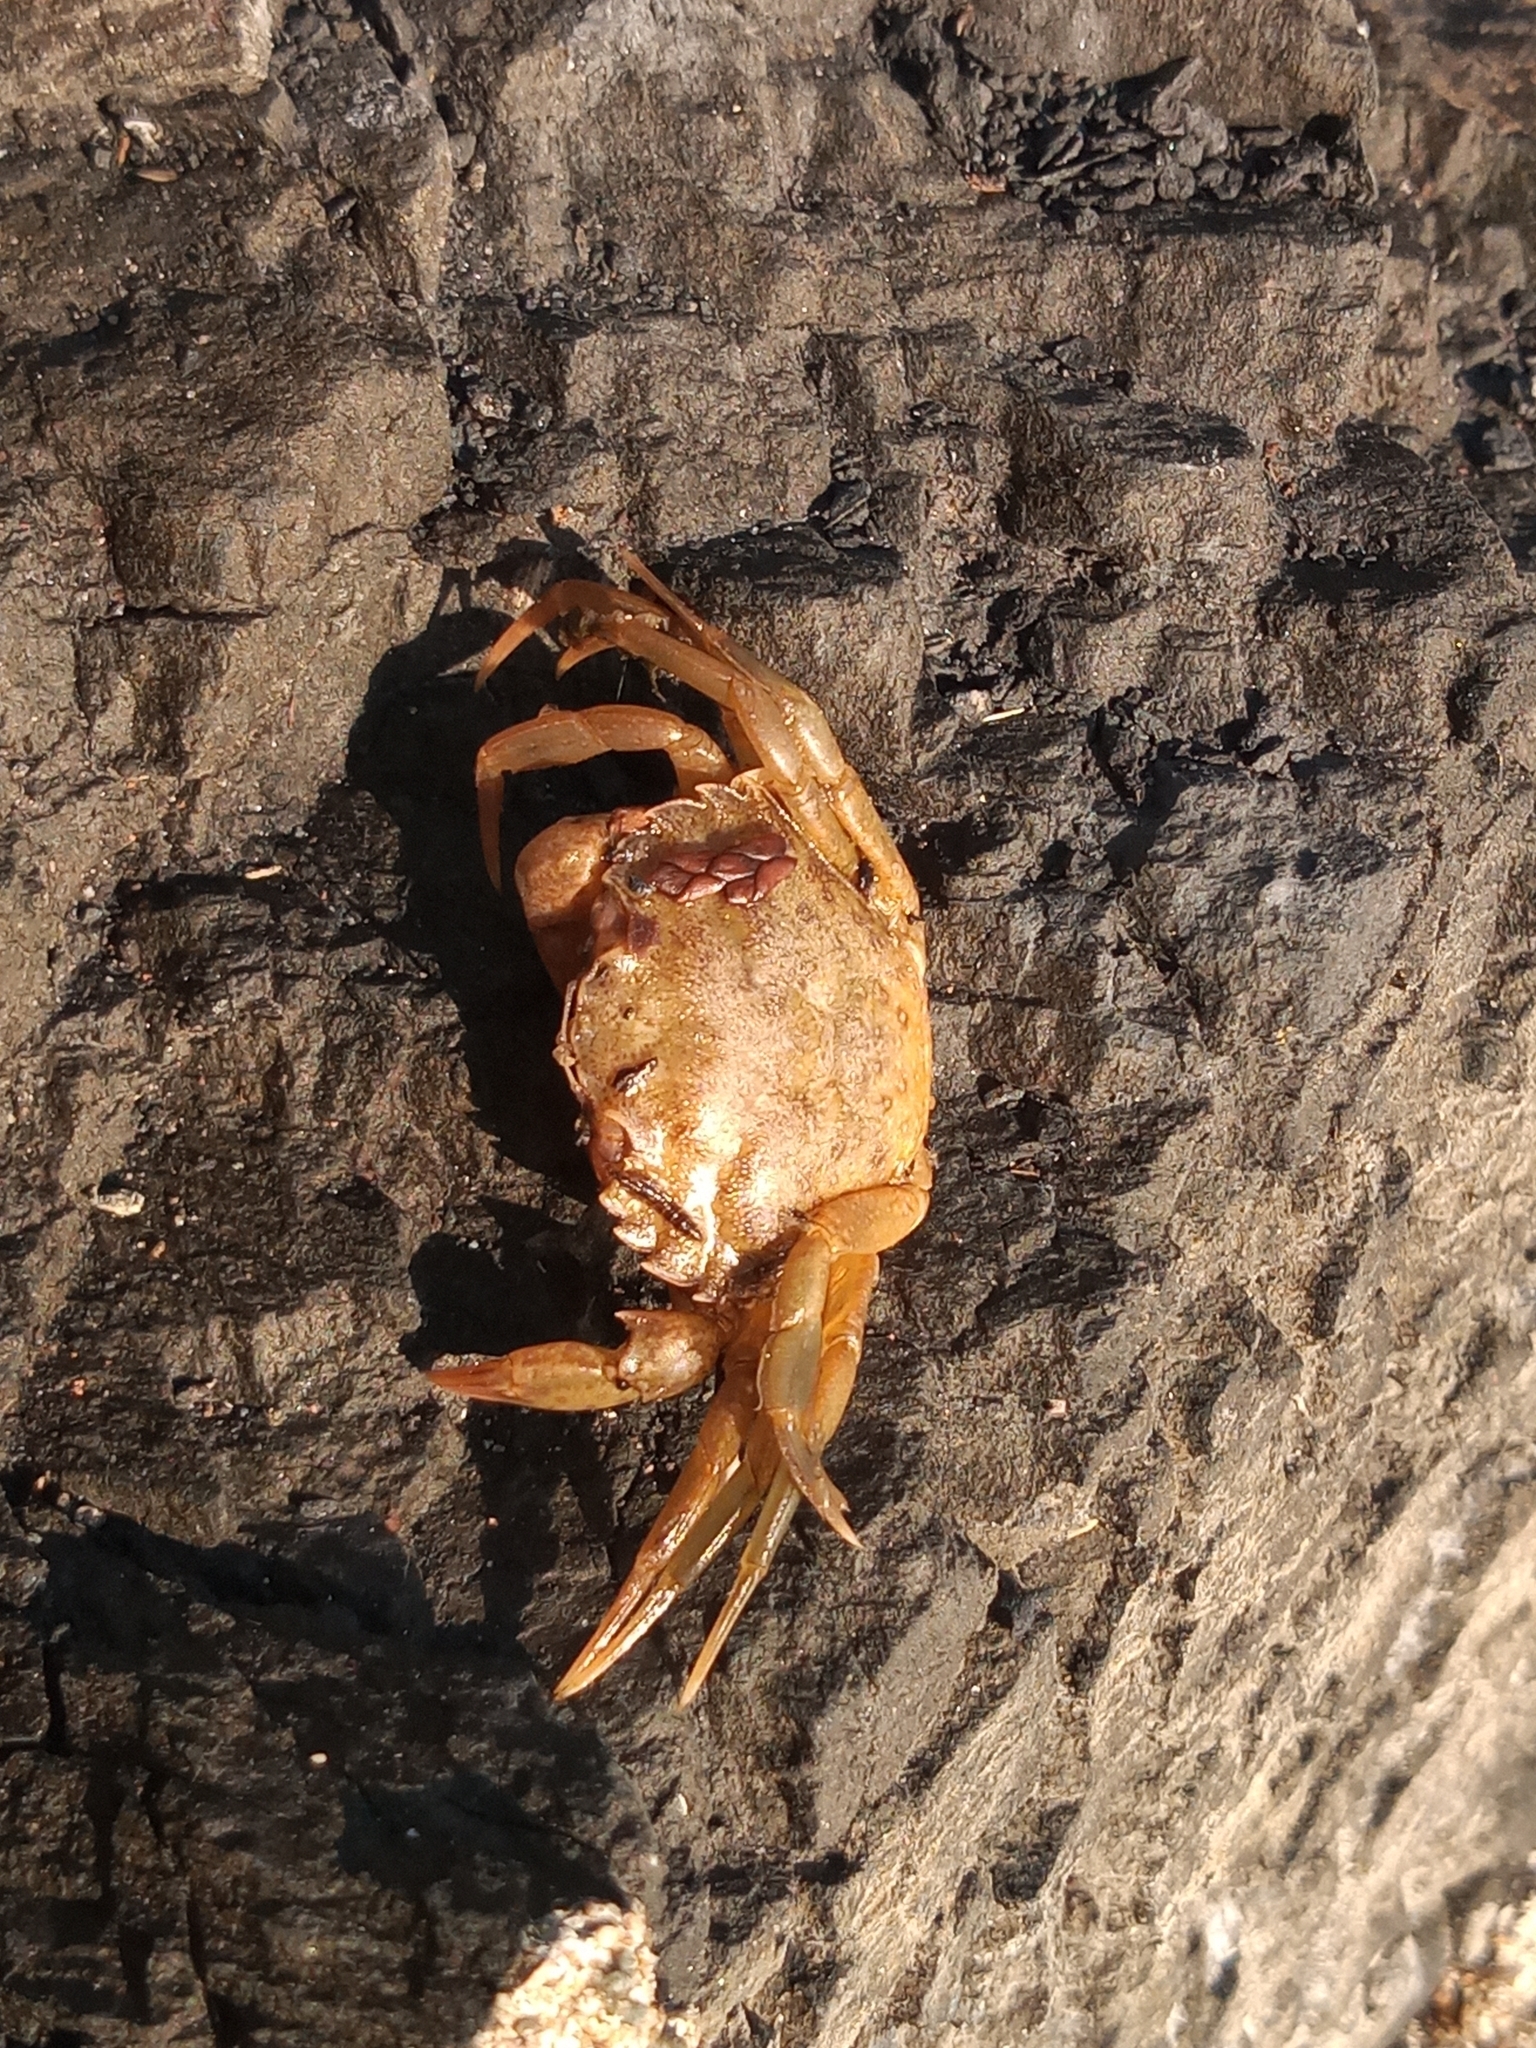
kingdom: Animalia
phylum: Arthropoda
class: Malacostraca
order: Decapoda
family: Carcinidae
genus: Carcinus
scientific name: Carcinus maenas
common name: European green crab
